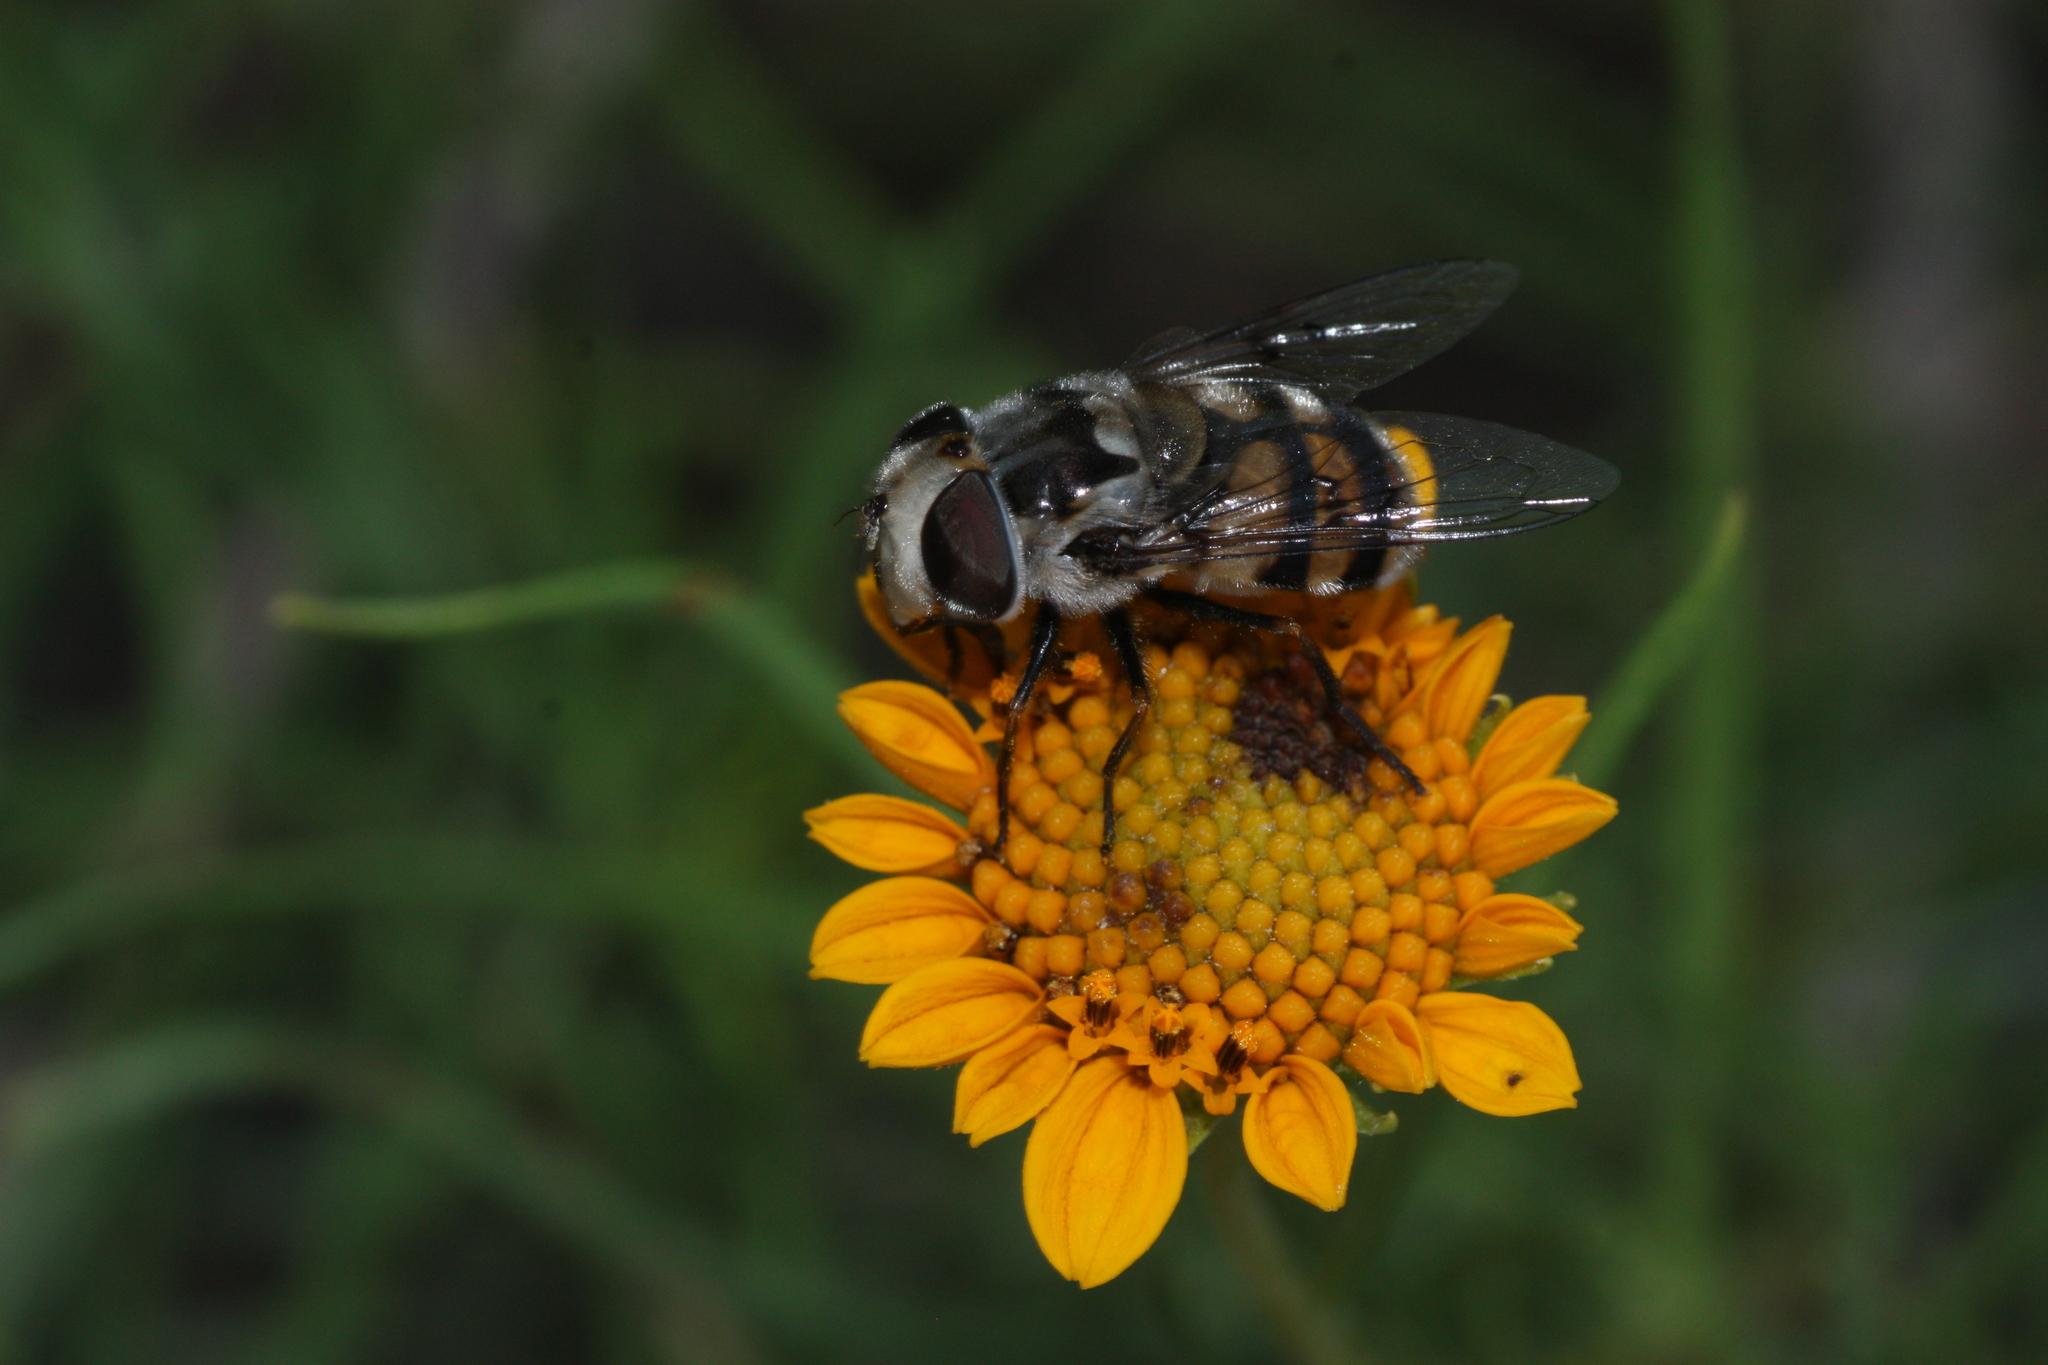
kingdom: Animalia
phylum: Arthropoda
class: Insecta
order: Diptera
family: Syrphidae
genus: Copestylum
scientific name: Copestylum avidum
